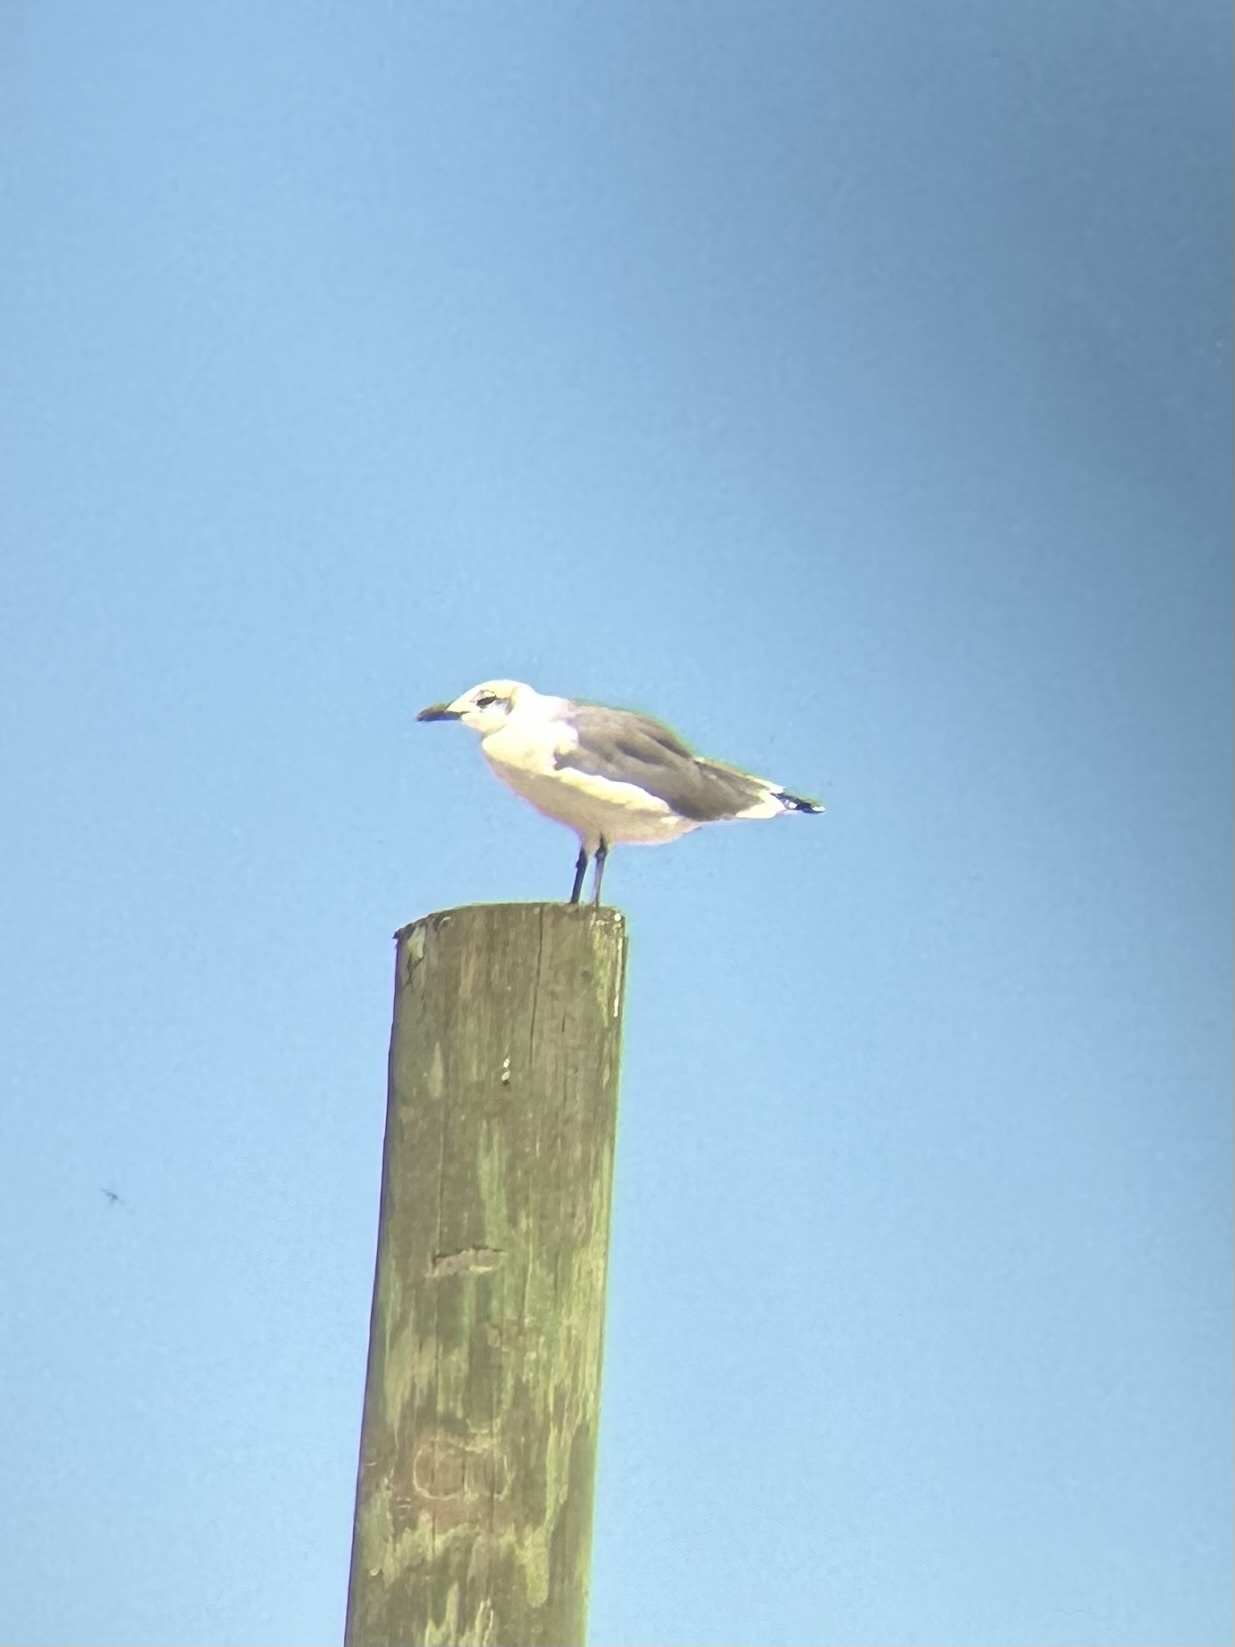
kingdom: Animalia
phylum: Chordata
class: Aves
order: Charadriiformes
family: Laridae
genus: Leucophaeus
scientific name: Leucophaeus atricilla
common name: Laughing gull
